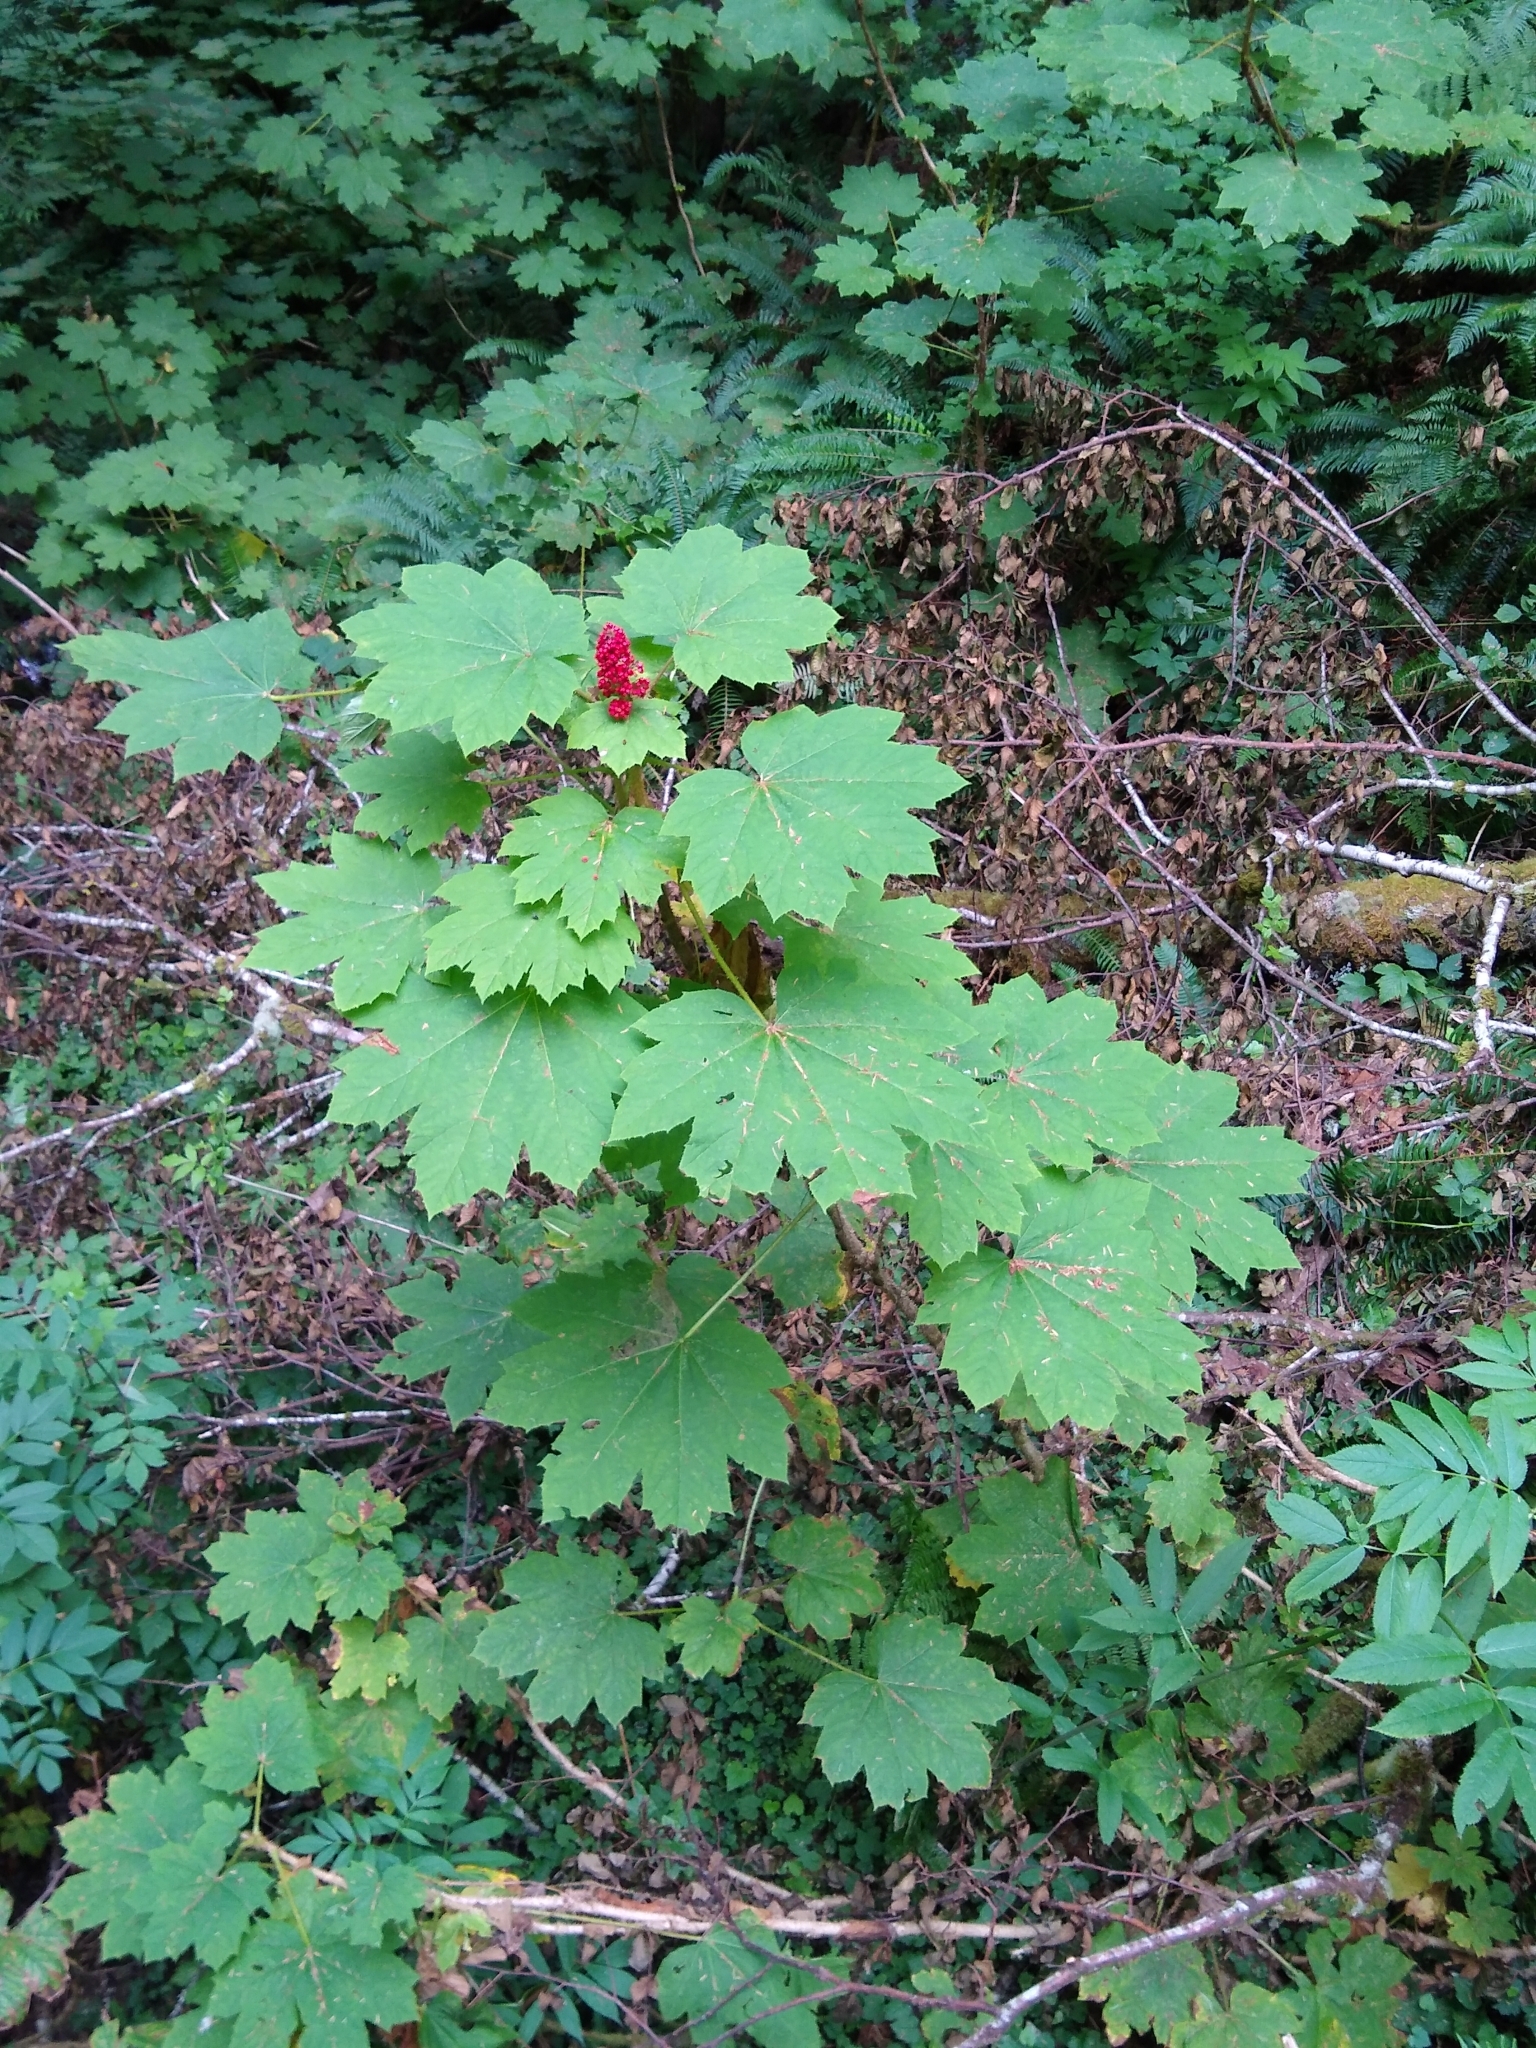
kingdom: Plantae
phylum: Tracheophyta
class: Magnoliopsida
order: Apiales
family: Araliaceae
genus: Oplopanax
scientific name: Oplopanax horridus
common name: Devil's walking-stick
